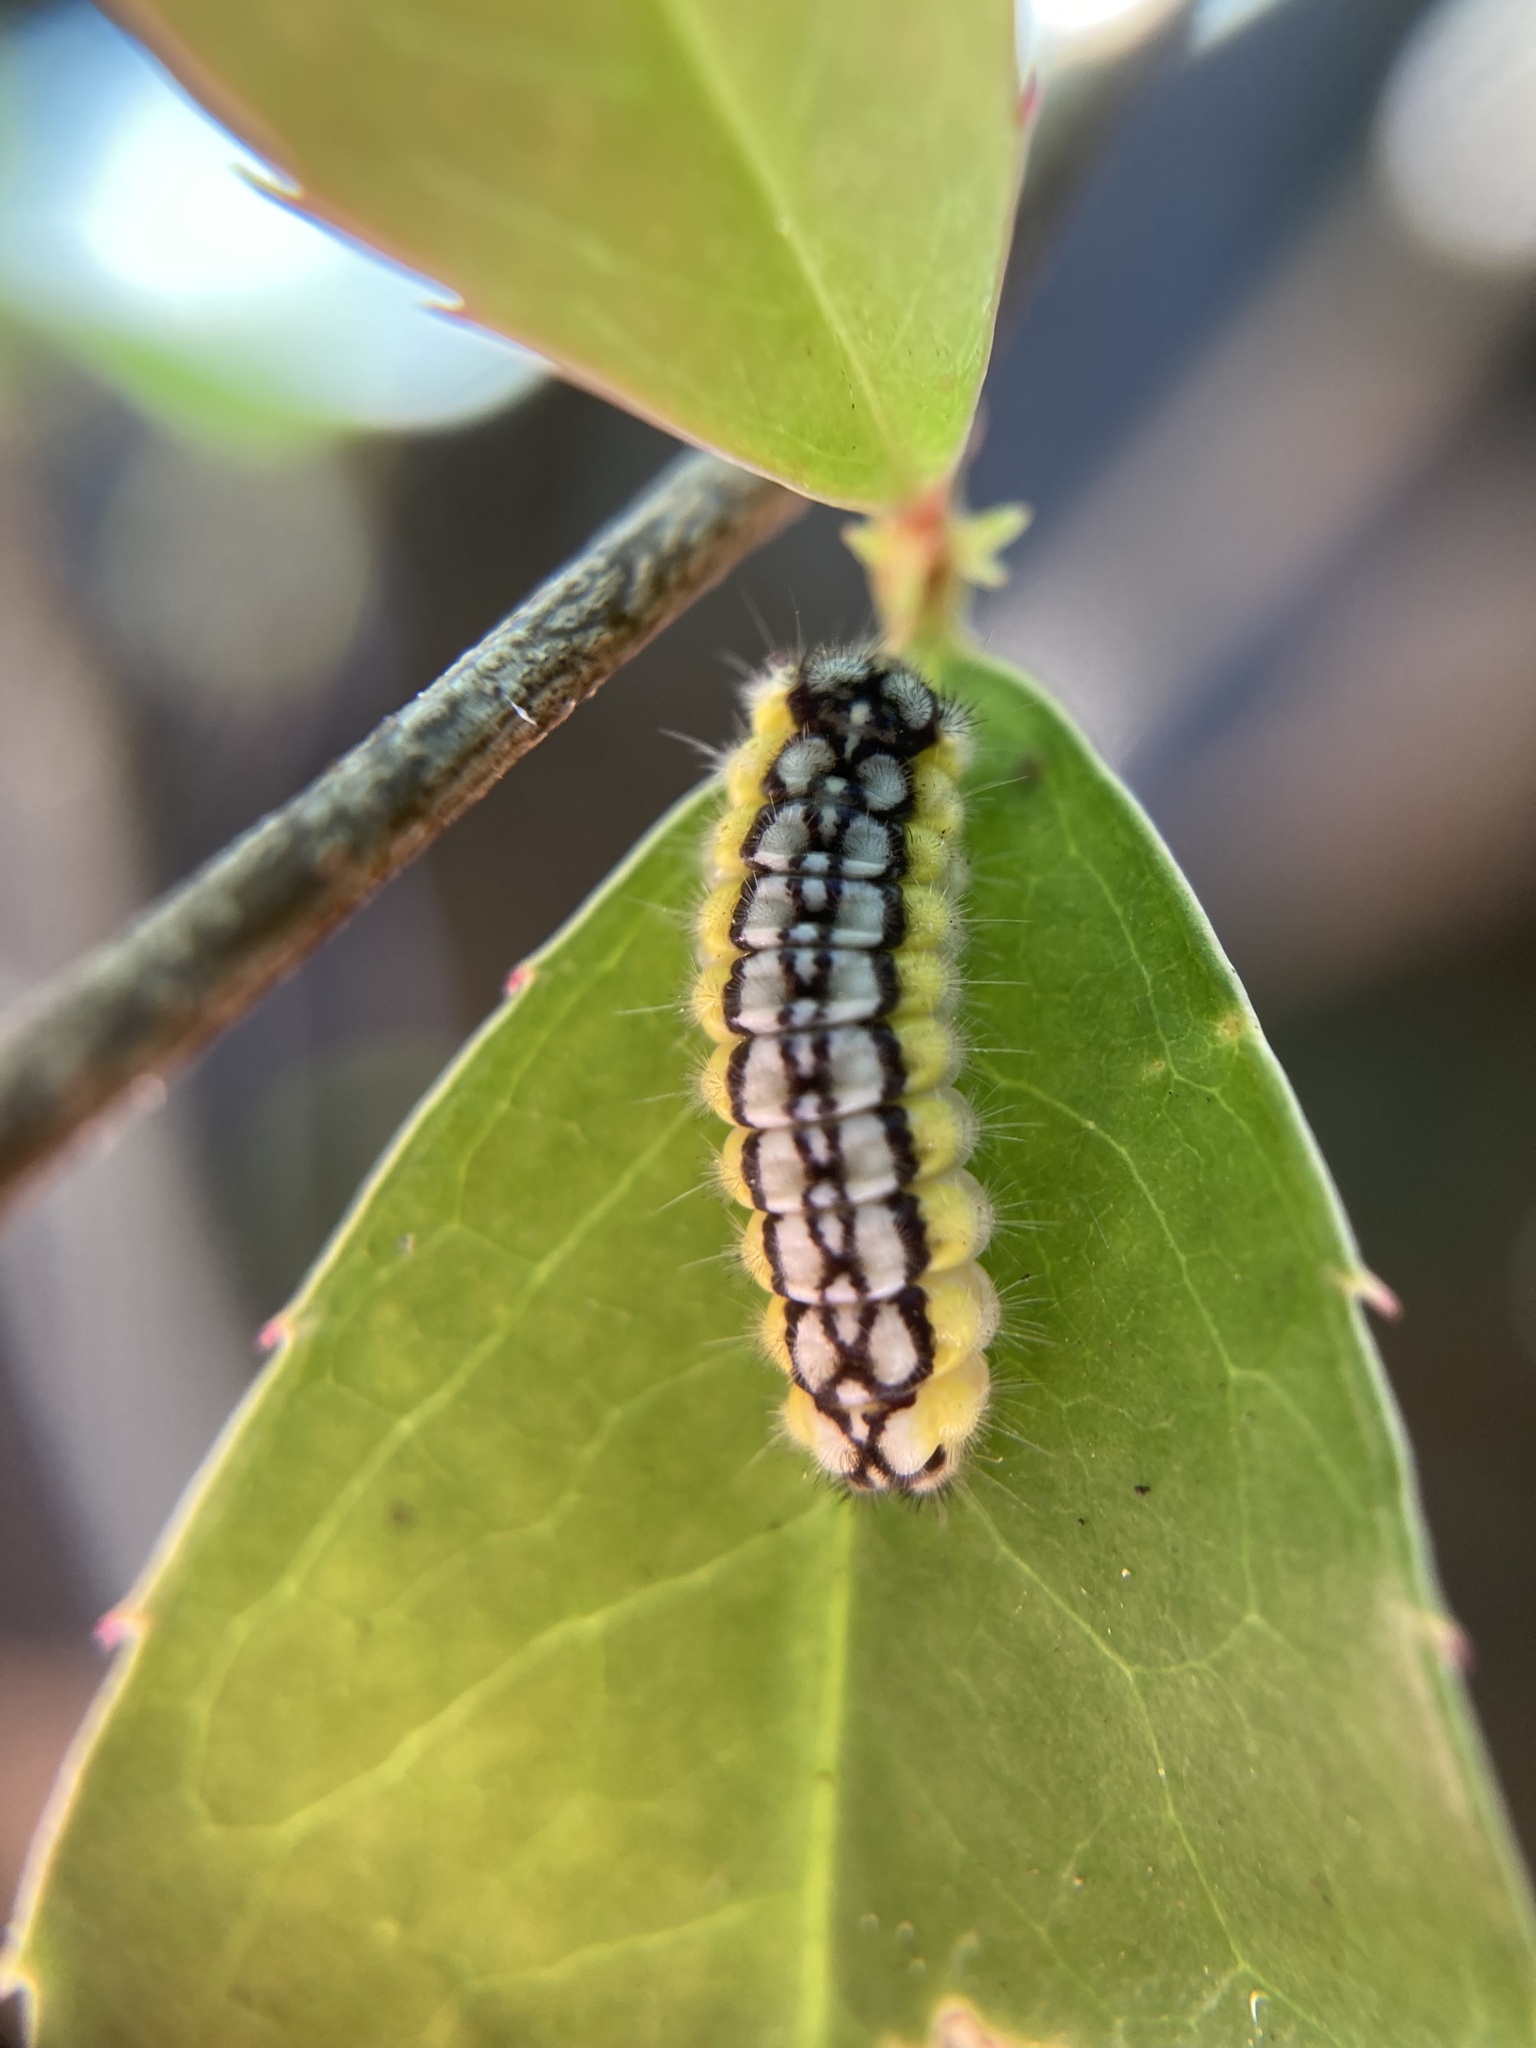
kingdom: Animalia
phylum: Arthropoda
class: Insecta
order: Lepidoptera
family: Zygaenidae
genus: Neoprocris
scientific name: Neoprocris floridana
